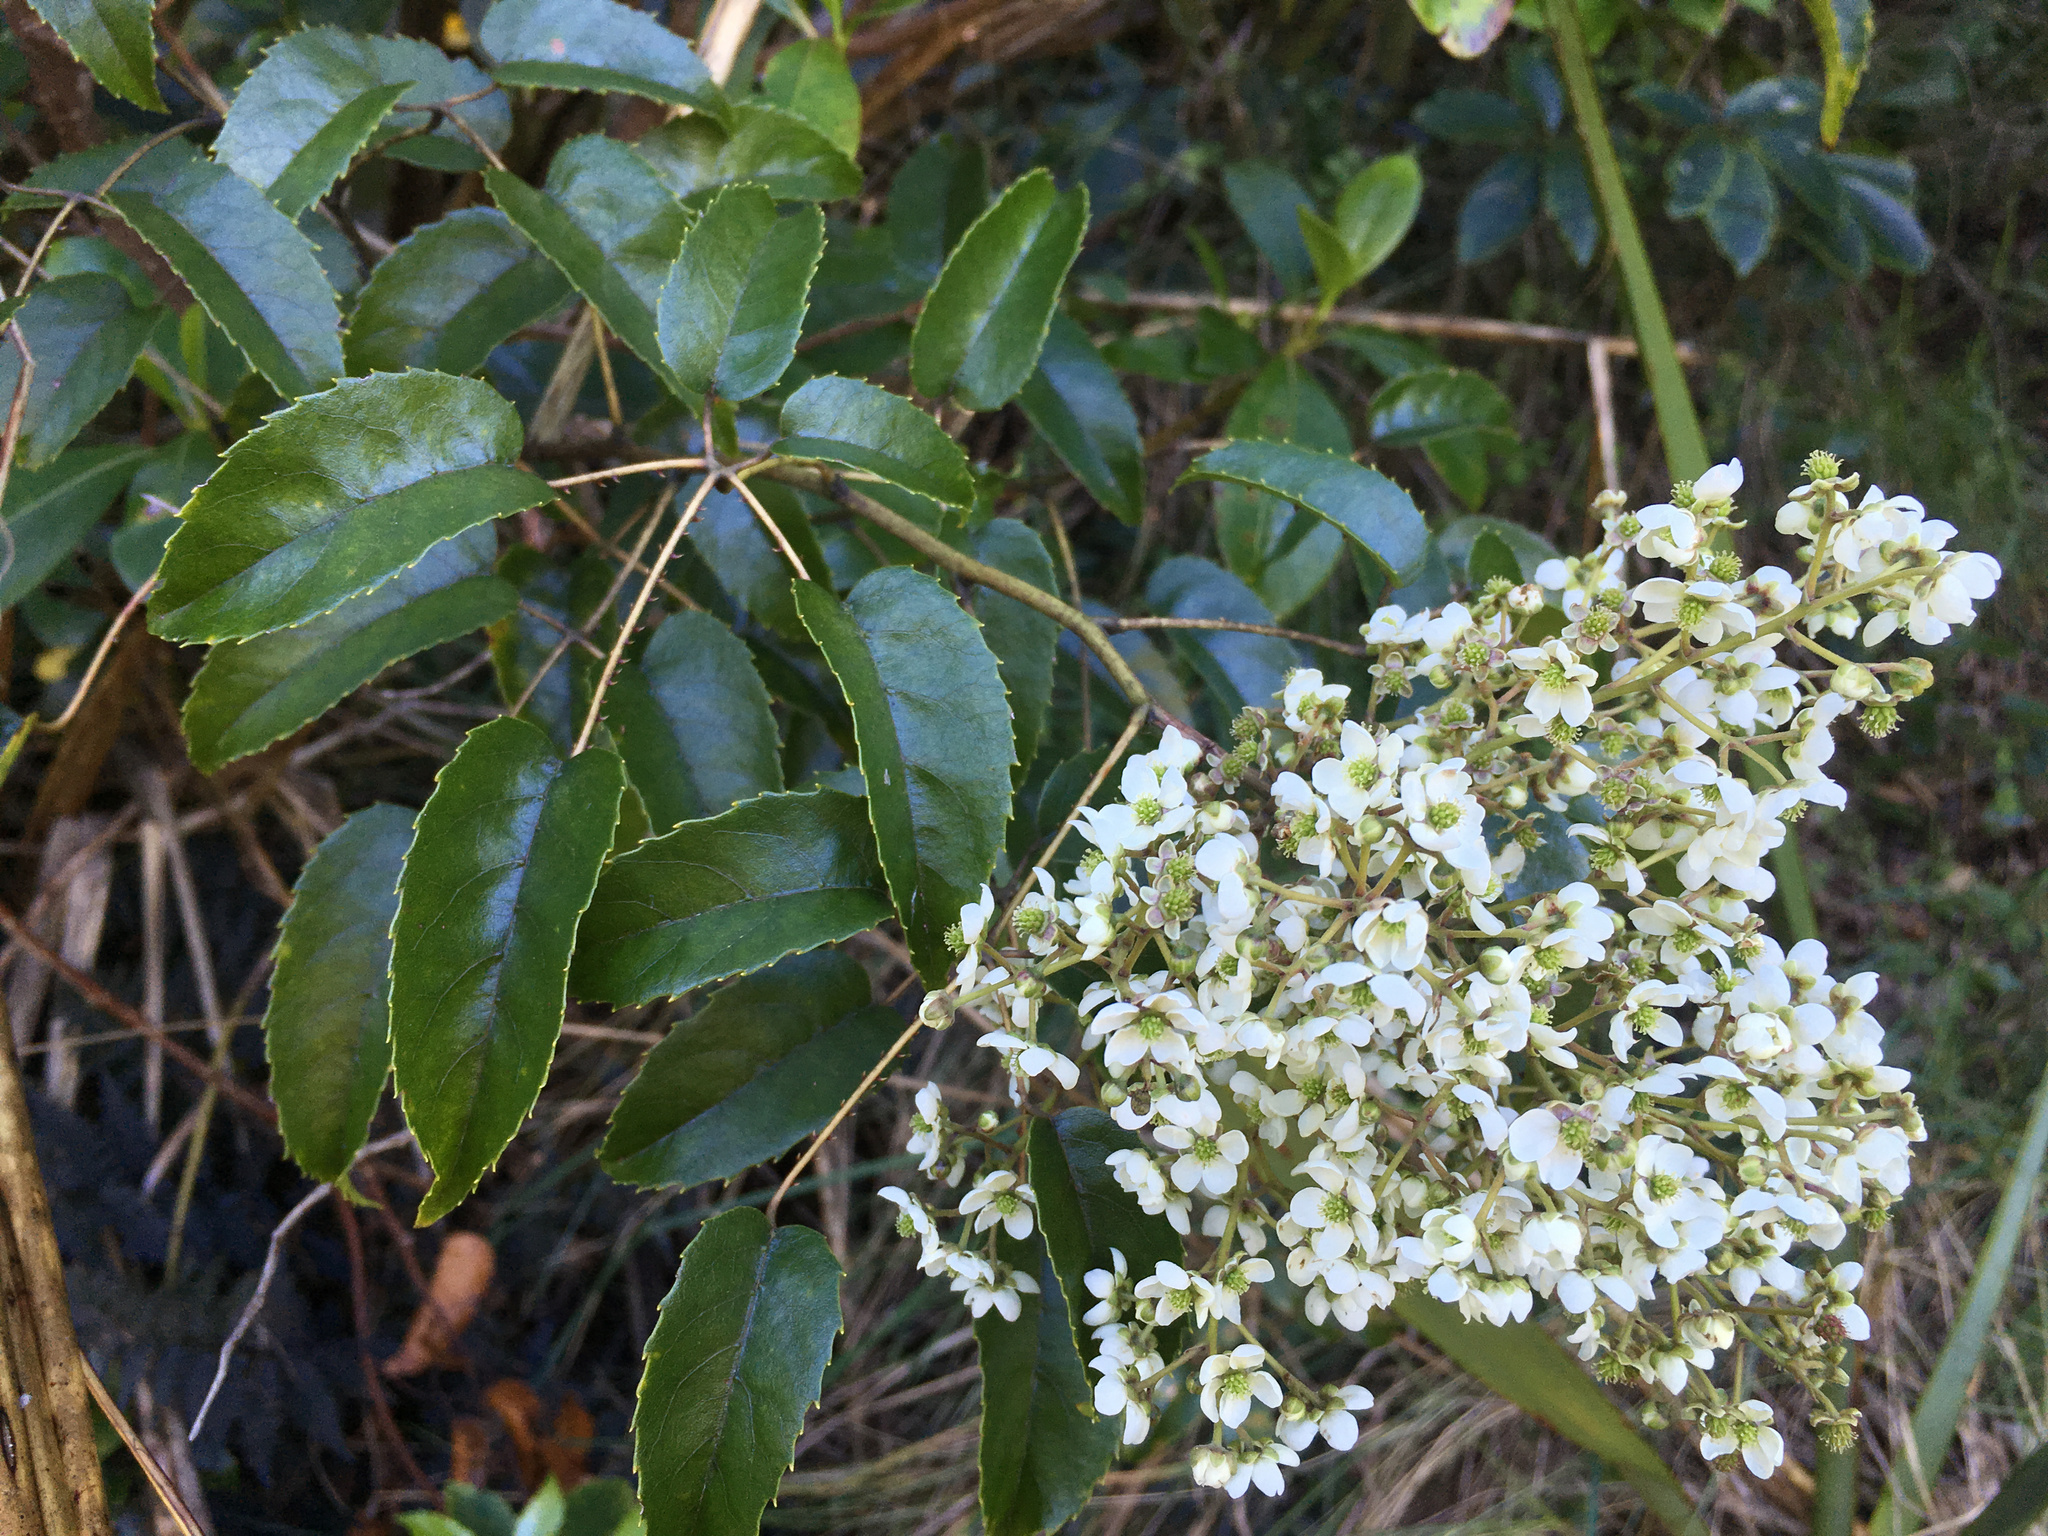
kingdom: Plantae
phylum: Tracheophyta
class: Magnoliopsida
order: Rosales
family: Rosaceae
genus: Rubus
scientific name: Rubus cissoides
